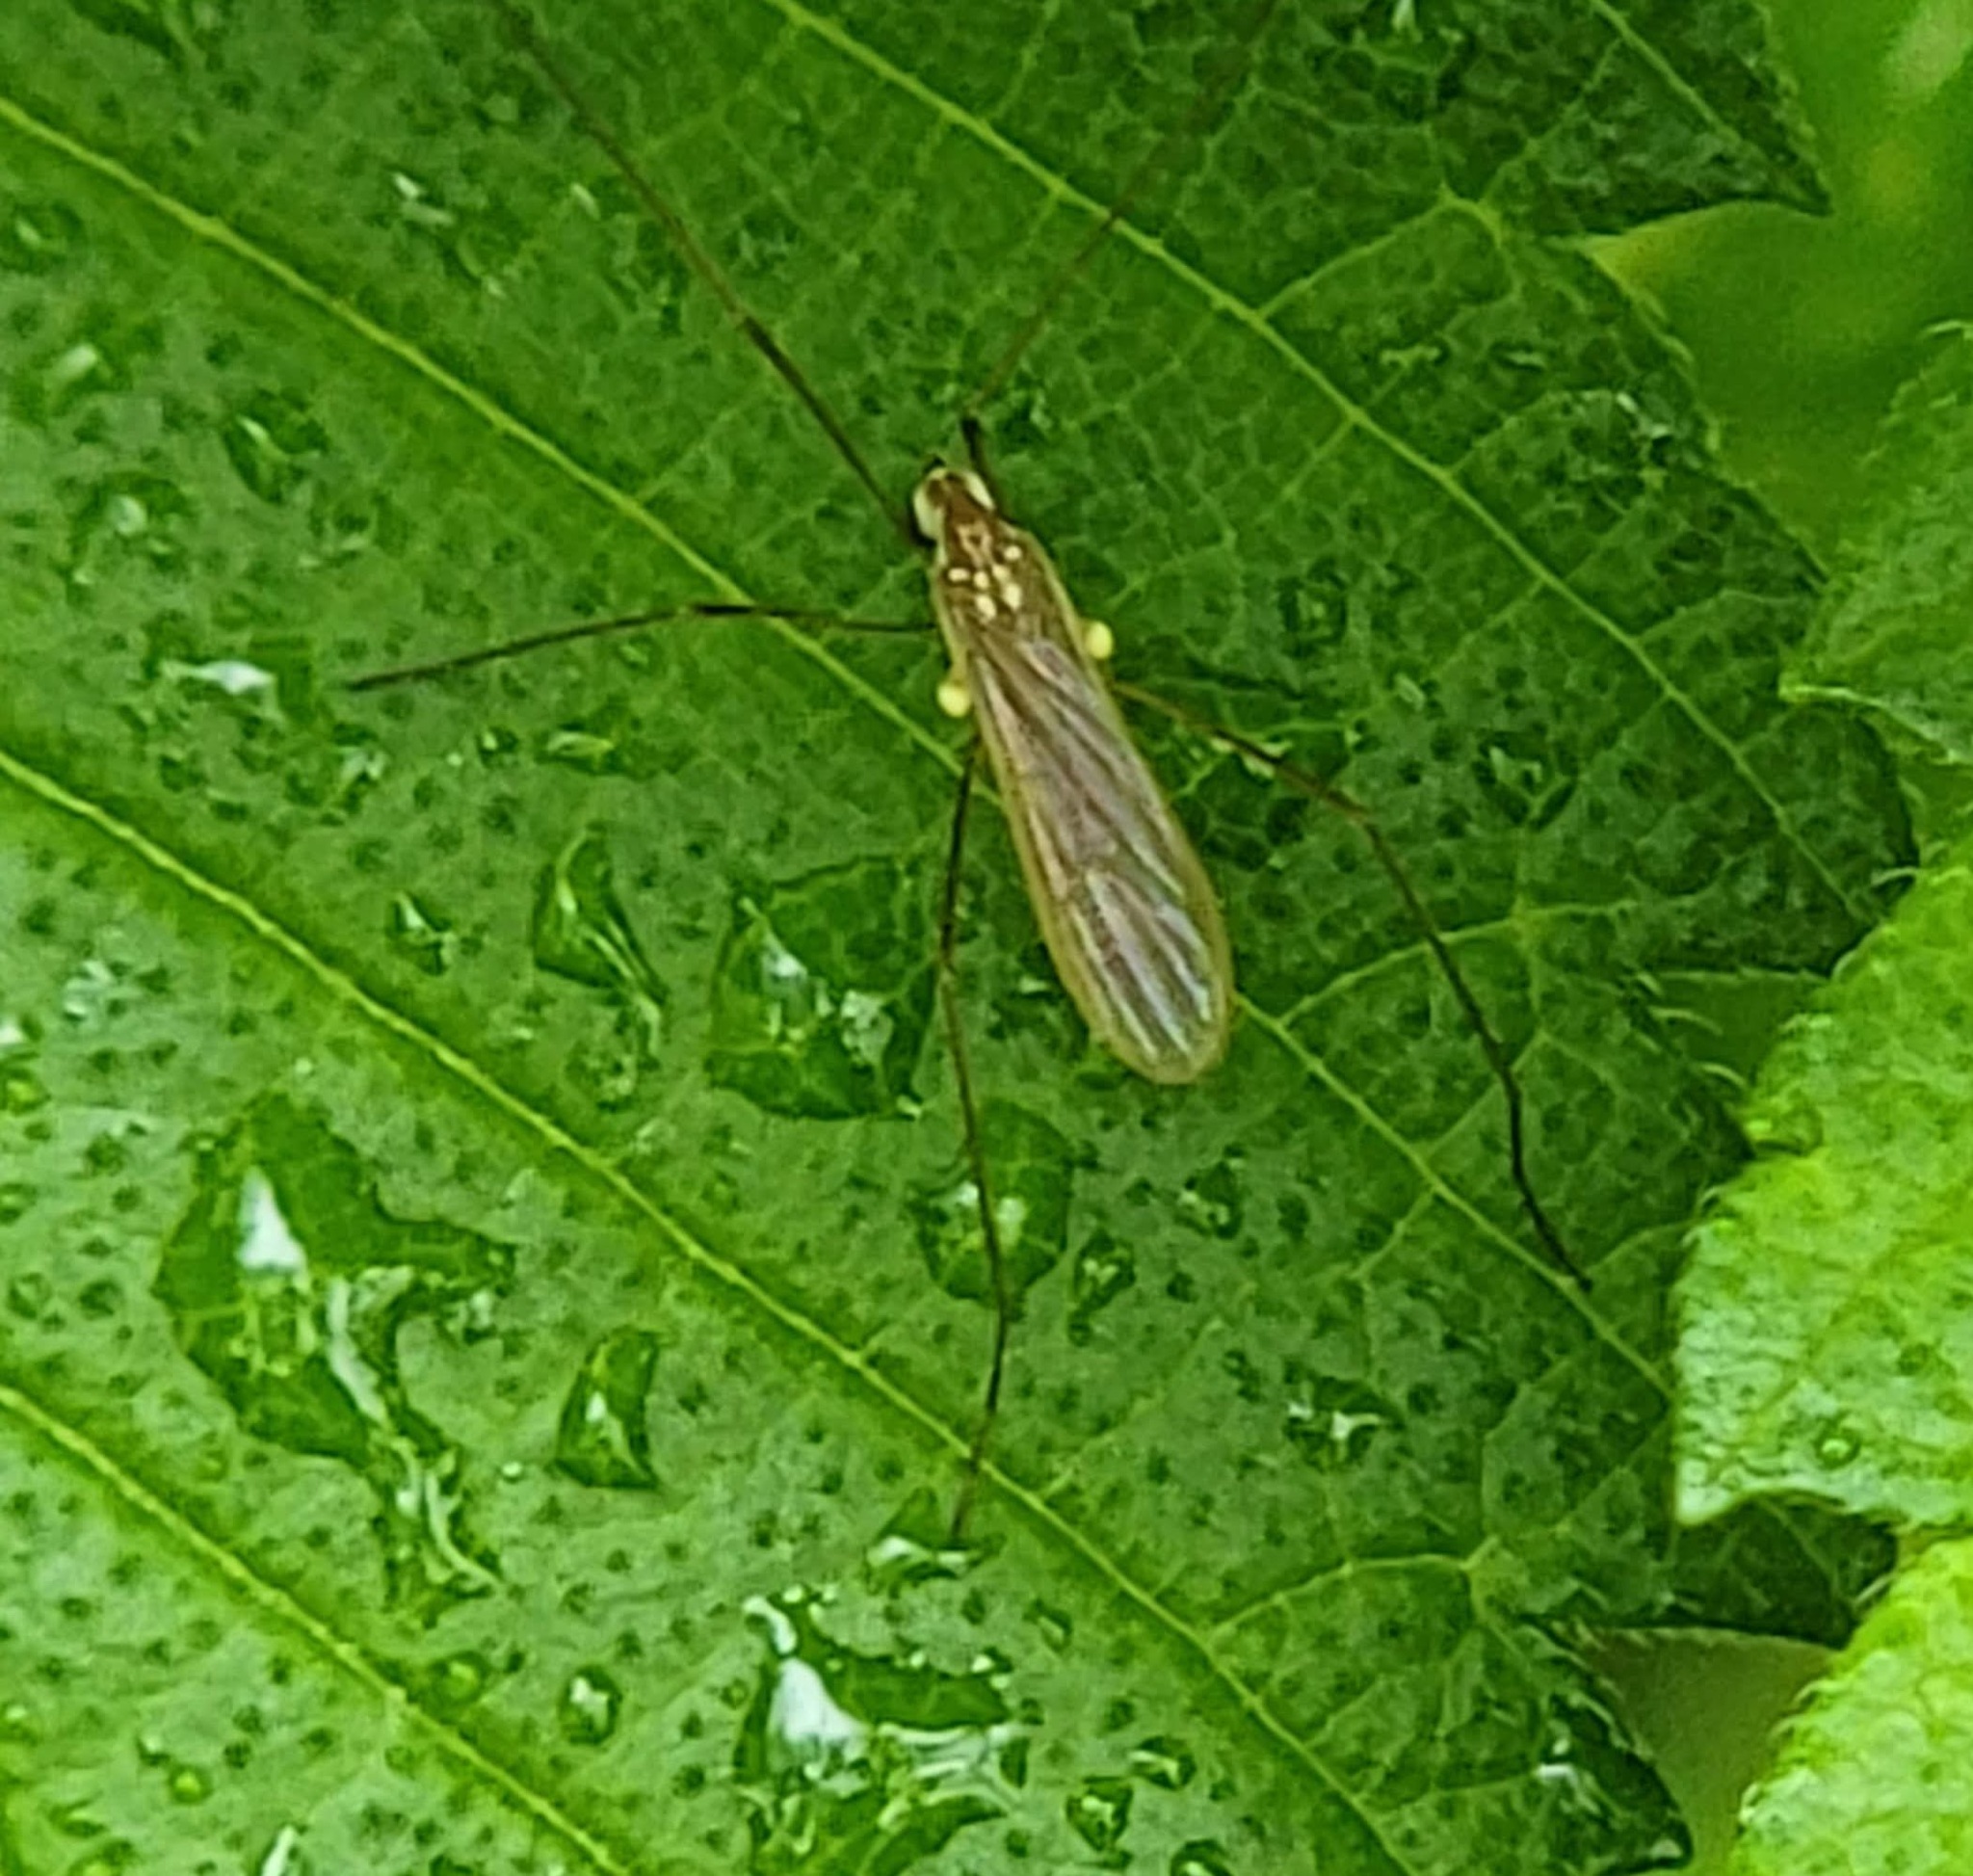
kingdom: Animalia
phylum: Arthropoda
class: Insecta
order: Diptera
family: Limoniidae
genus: Erioptera
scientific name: Erioptera vespertina
